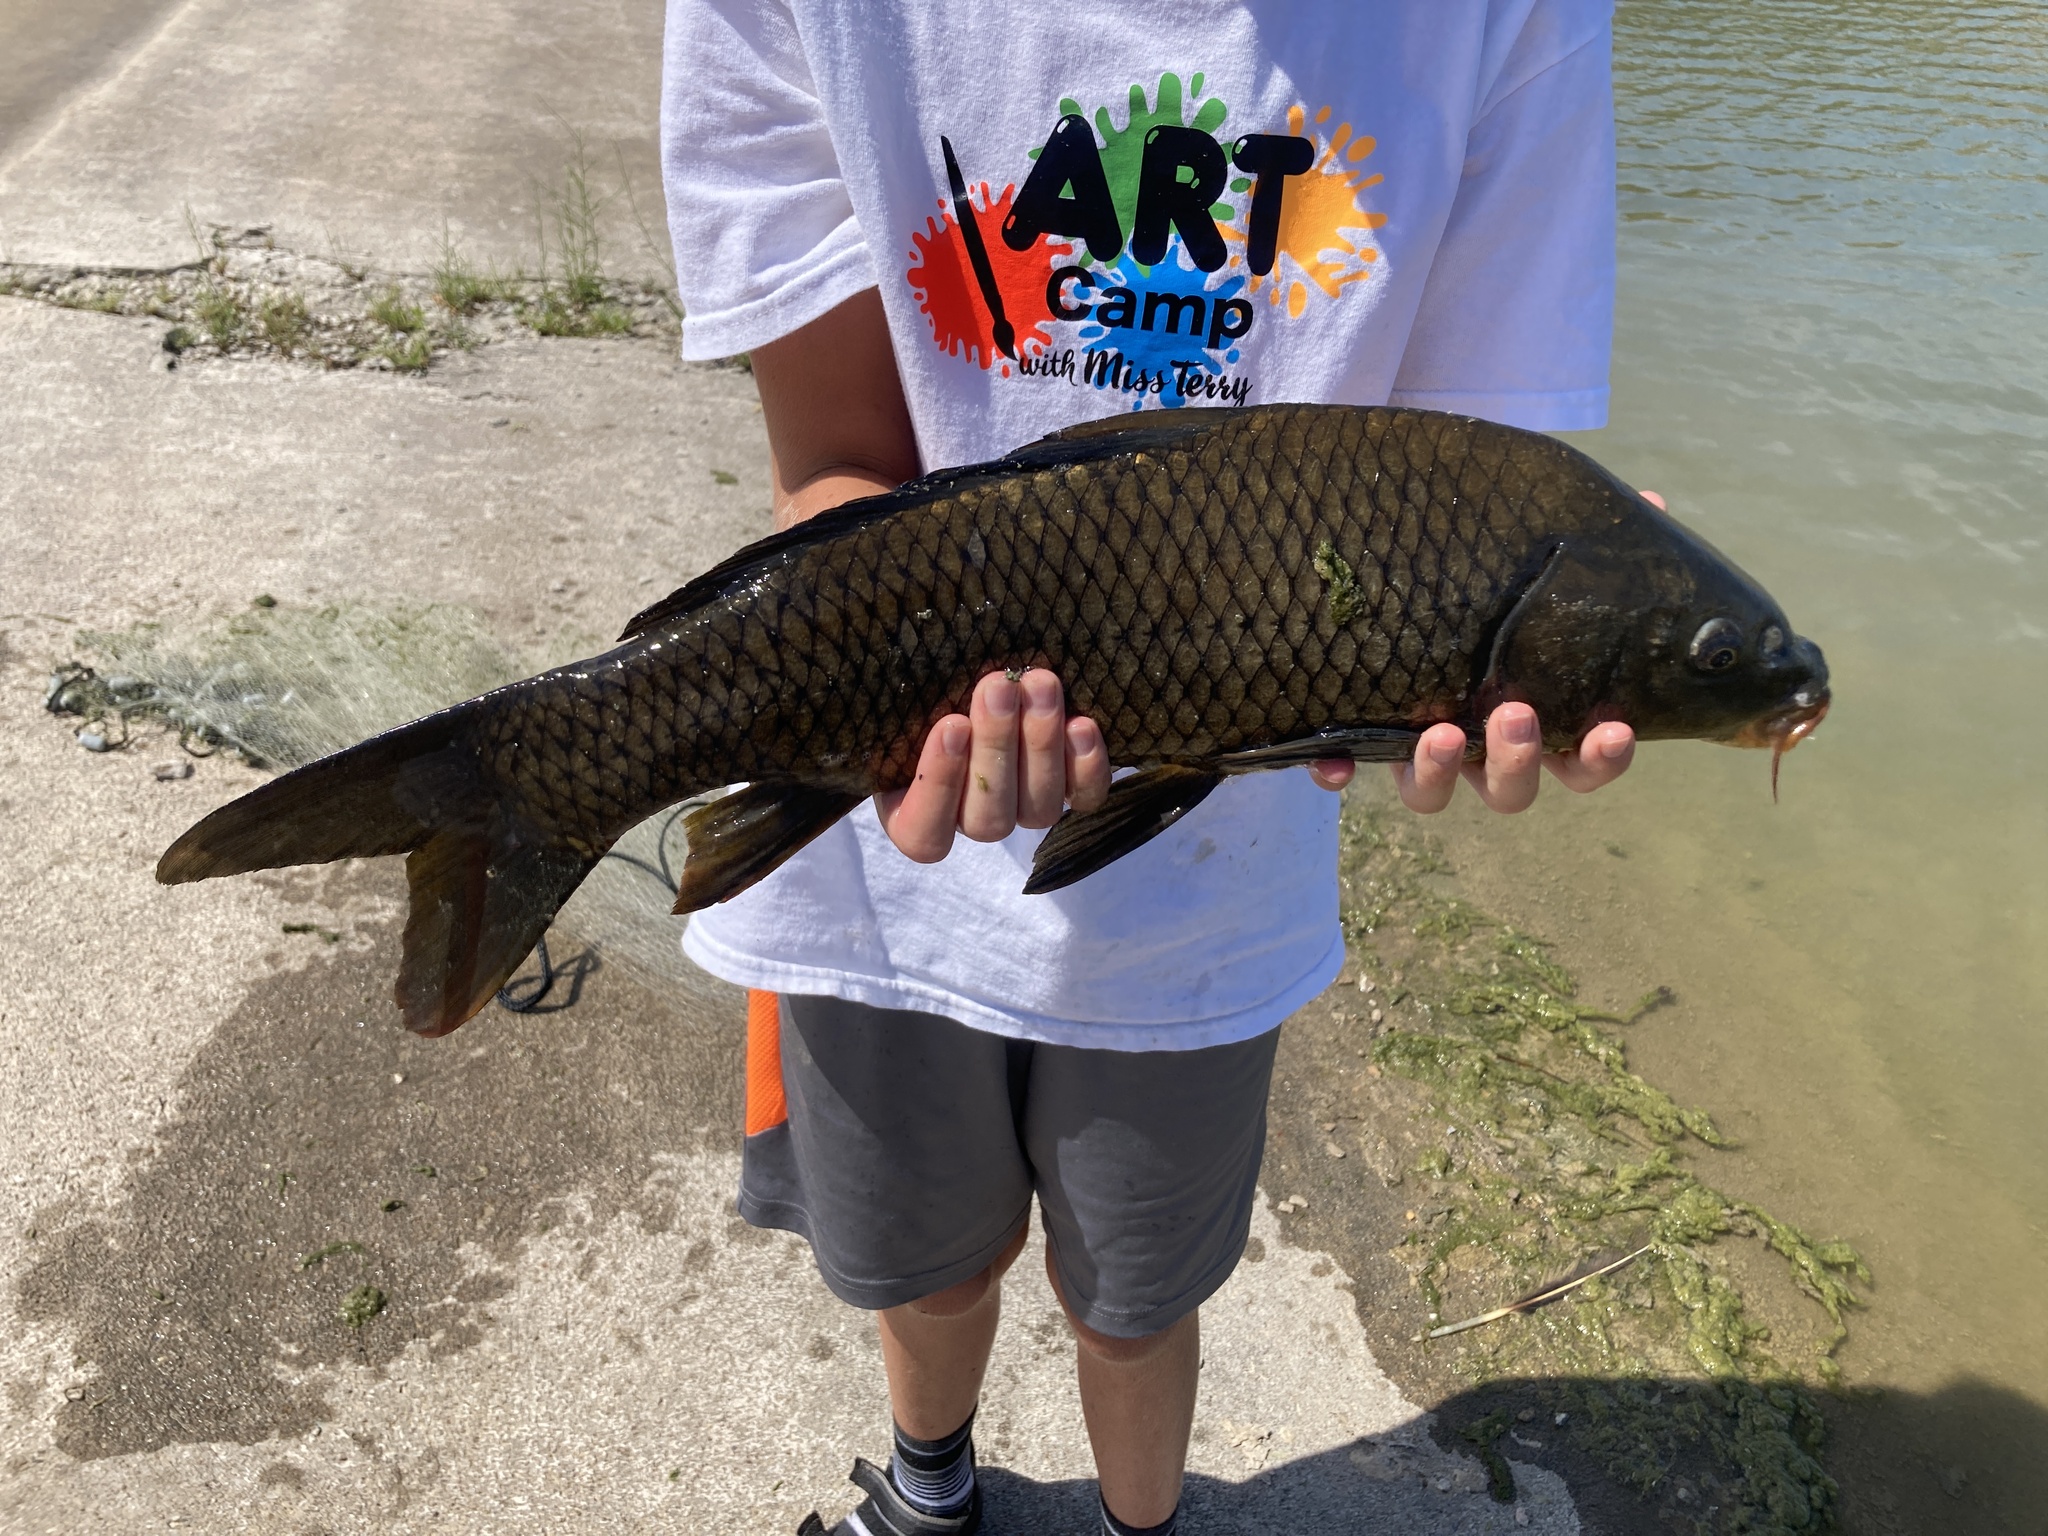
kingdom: Animalia
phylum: Chordata
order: Cypriniformes
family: Cyprinidae
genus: Cyprinus
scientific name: Cyprinus carpio
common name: Common carp
